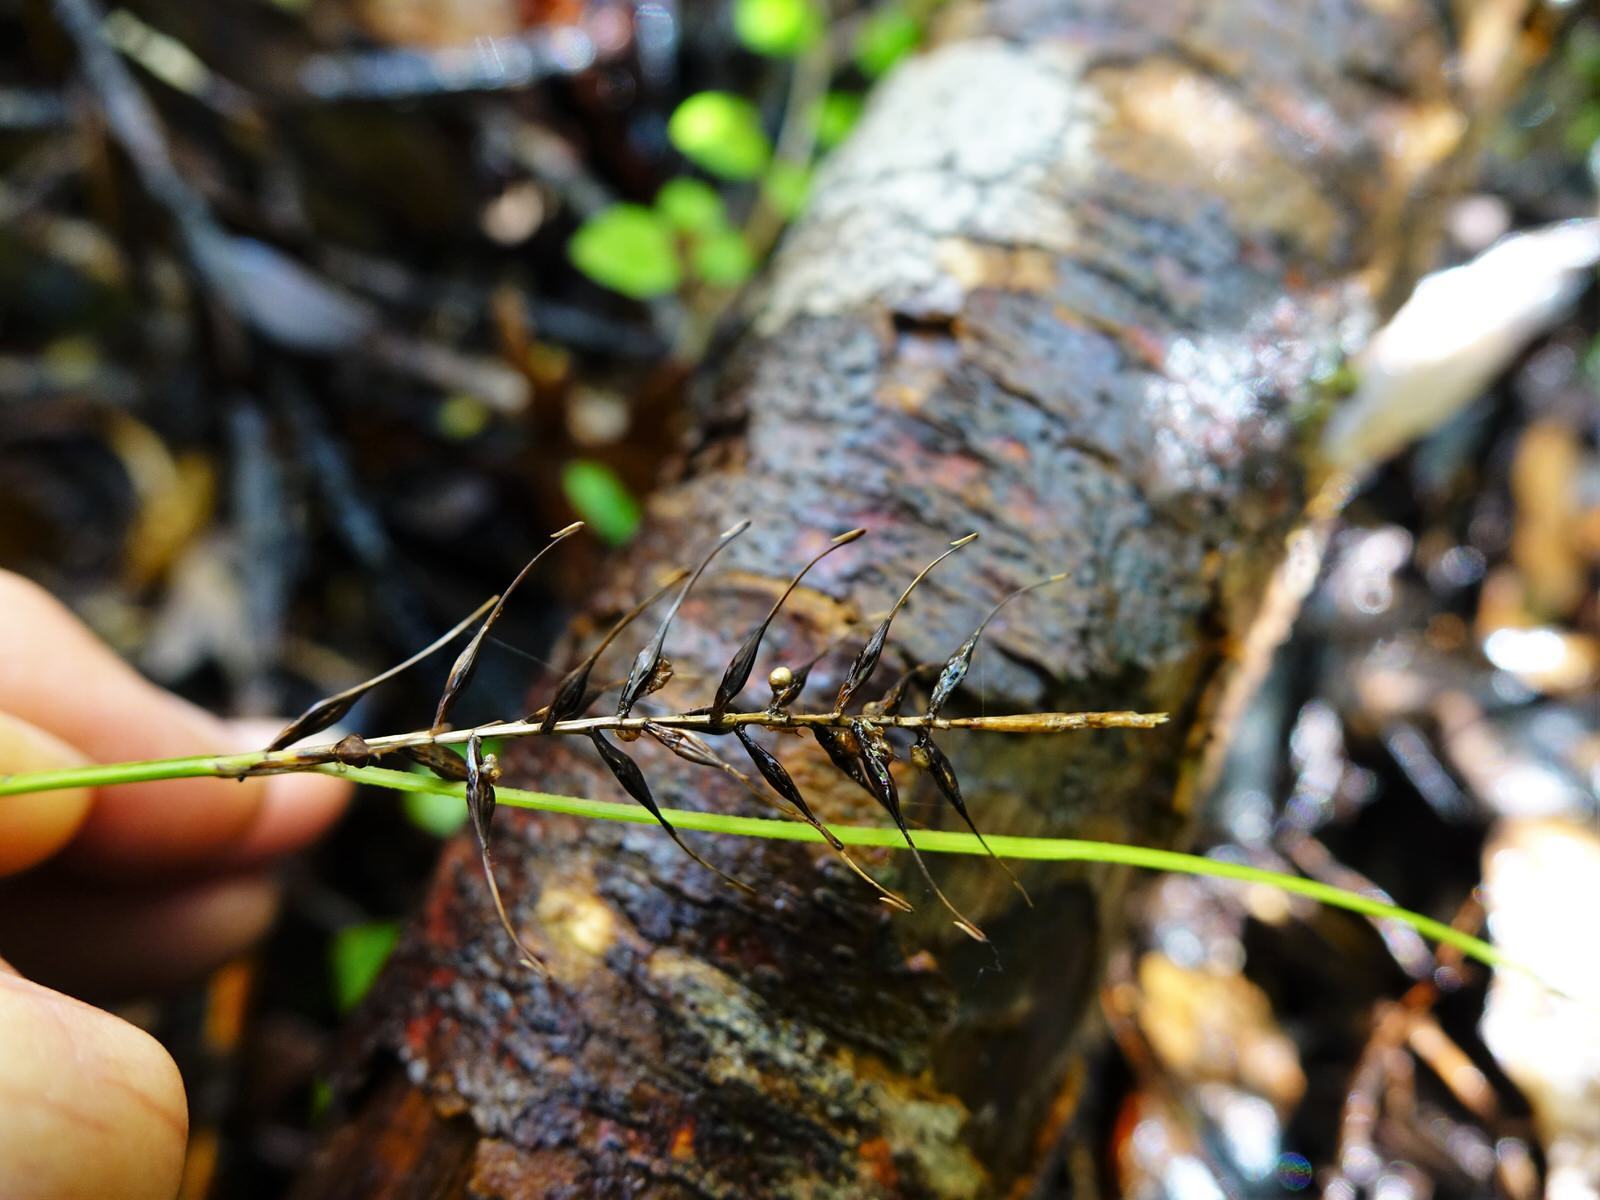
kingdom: Plantae
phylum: Tracheophyta
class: Liliopsida
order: Poales
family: Cyperaceae
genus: Carex
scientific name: Carex zotovii
